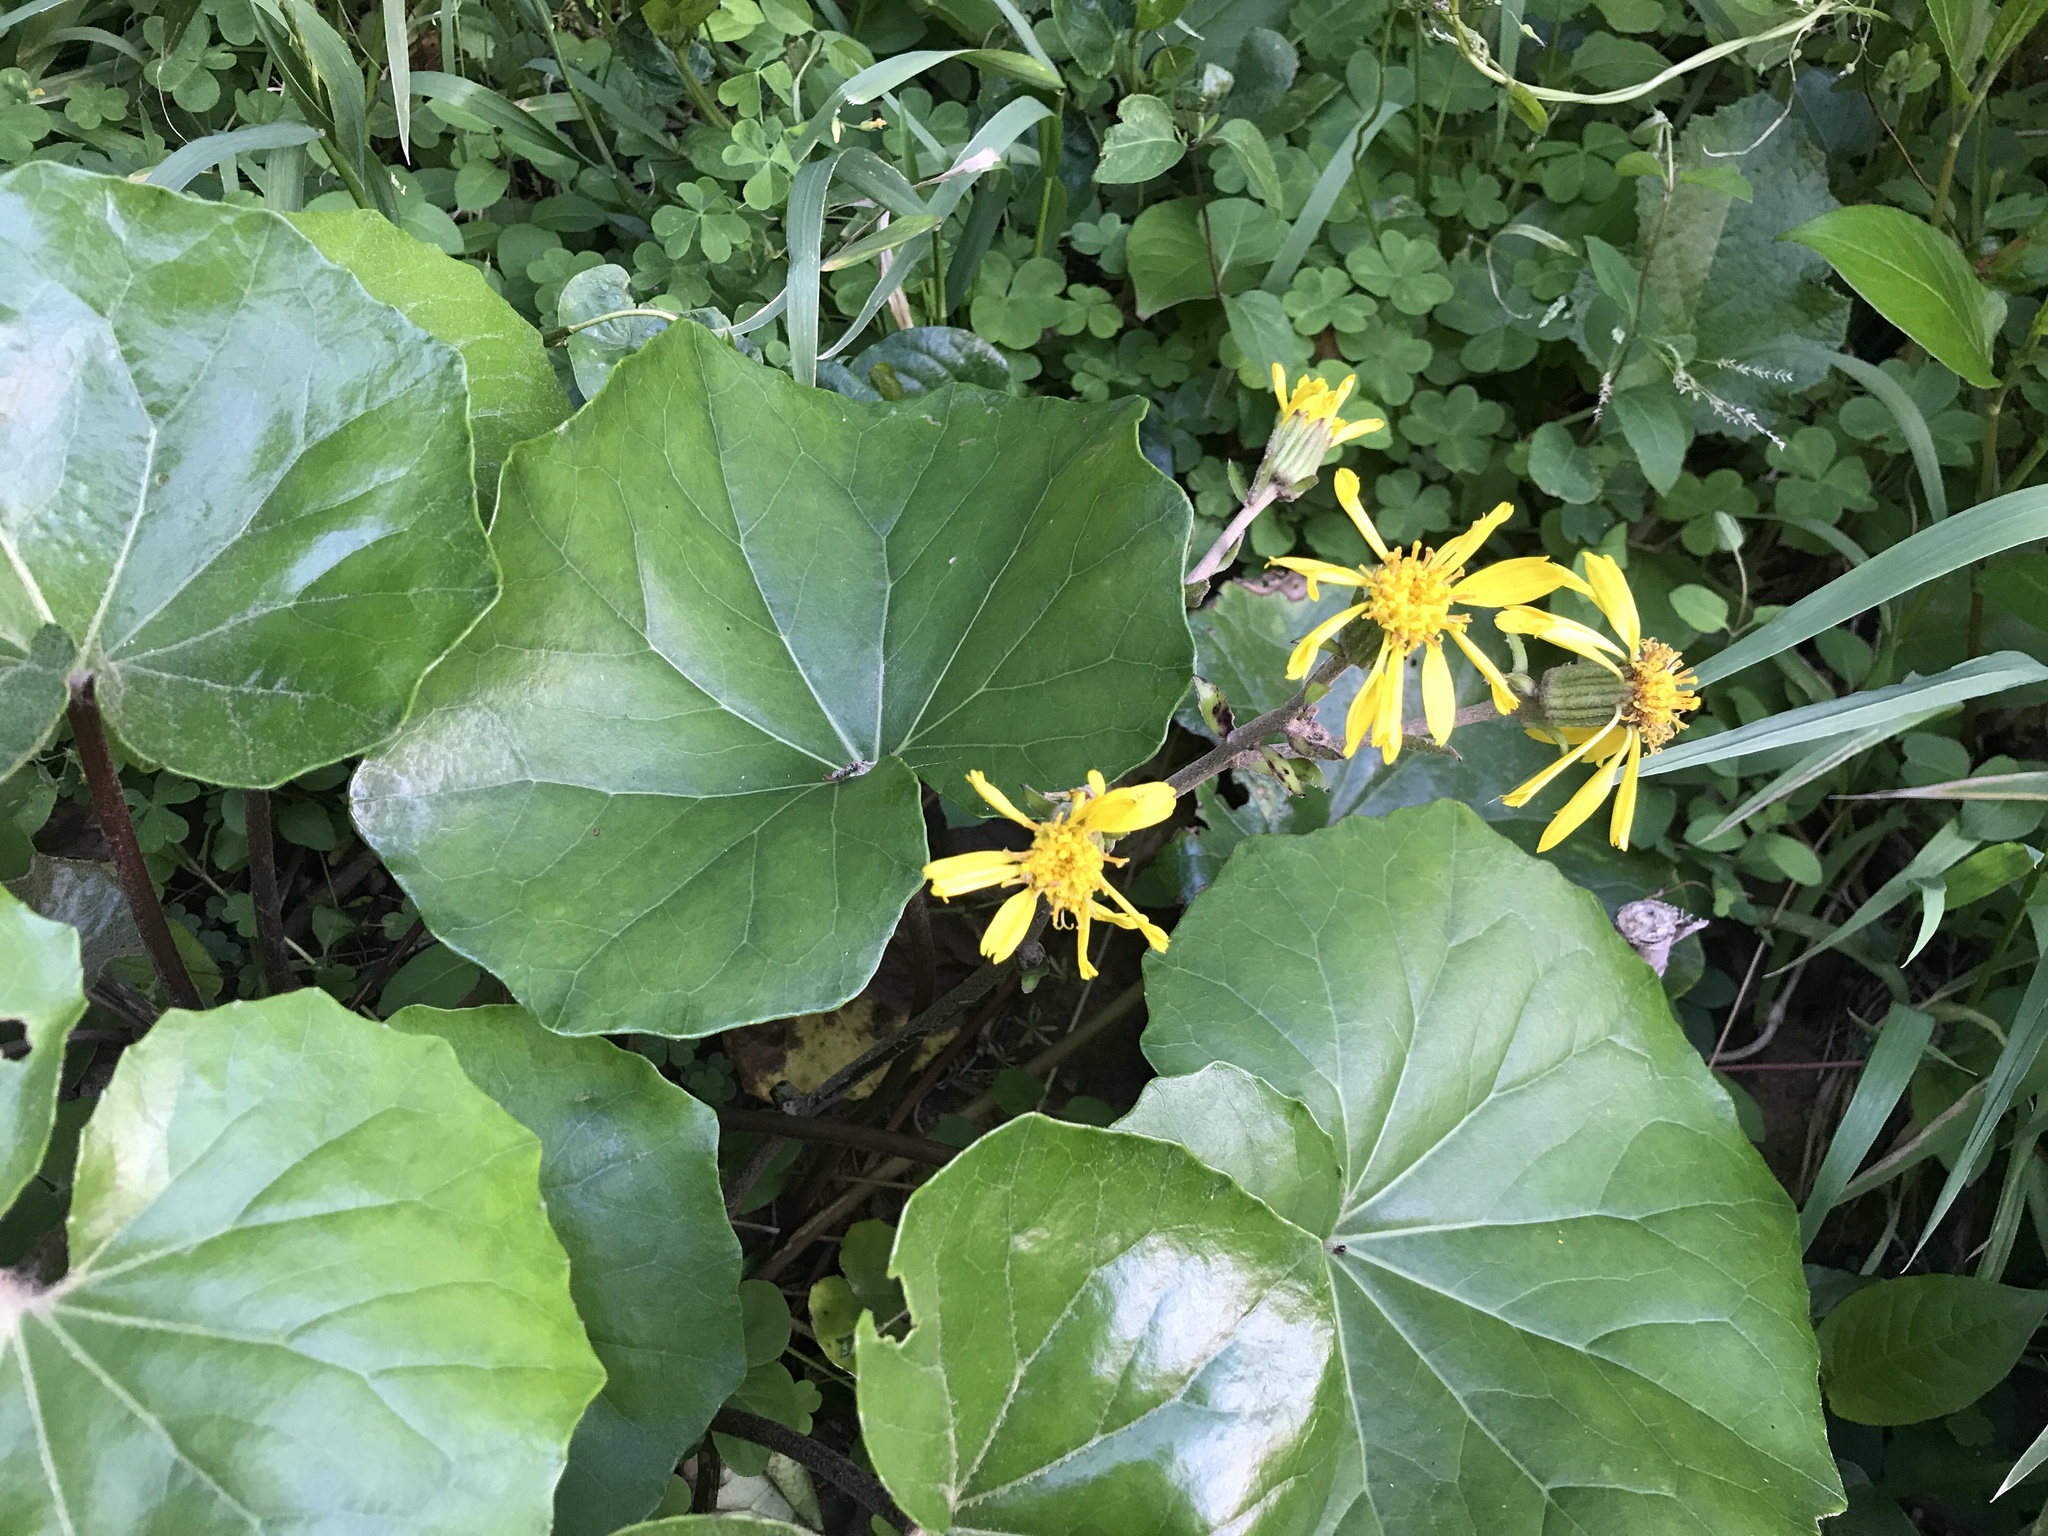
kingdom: Plantae
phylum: Tracheophyta
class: Magnoliopsida
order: Asterales
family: Asteraceae
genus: Farfugium
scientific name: Farfugium japonicum
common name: Leopardplant
